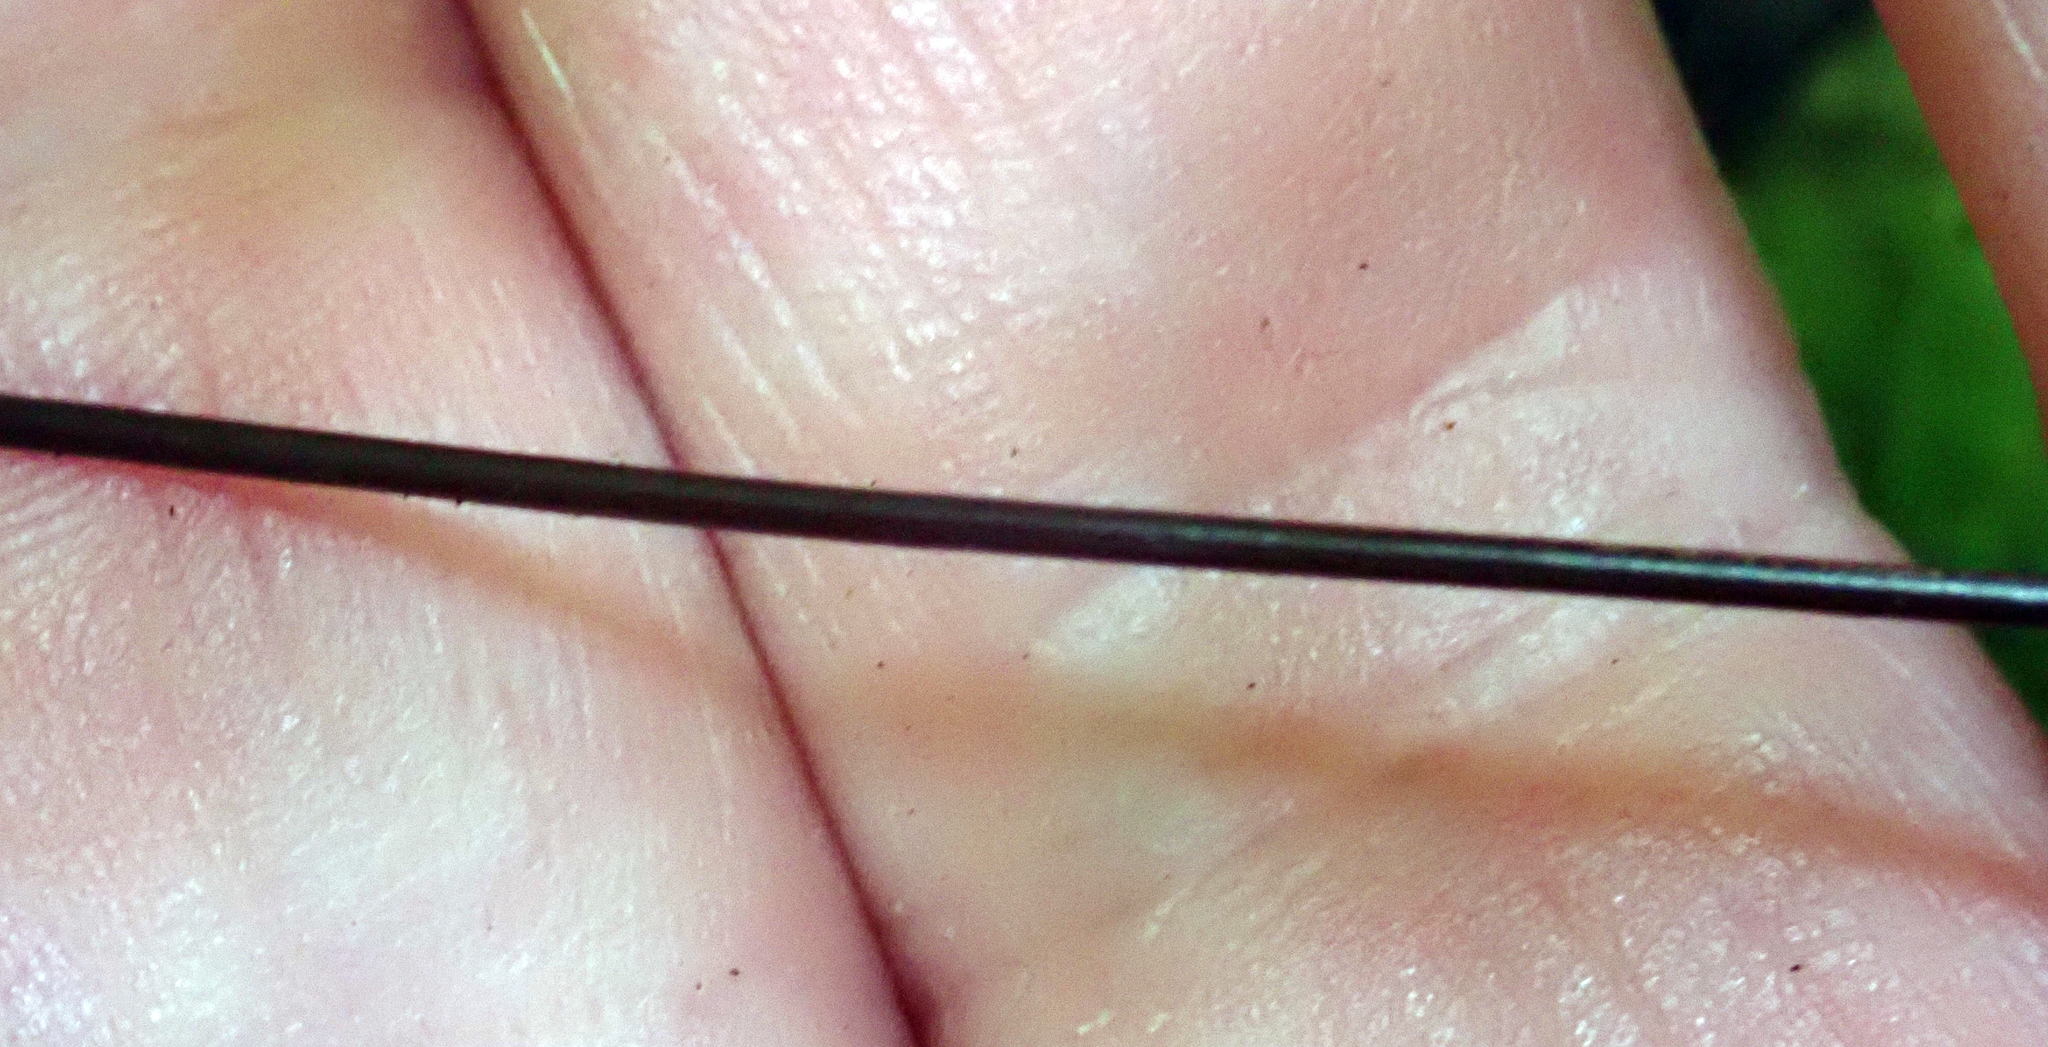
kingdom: Plantae
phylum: Tracheophyta
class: Polypodiopsida
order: Hymenophyllales
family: Hymenophyllaceae
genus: Hymenophyllum
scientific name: Hymenophyllum demissum
